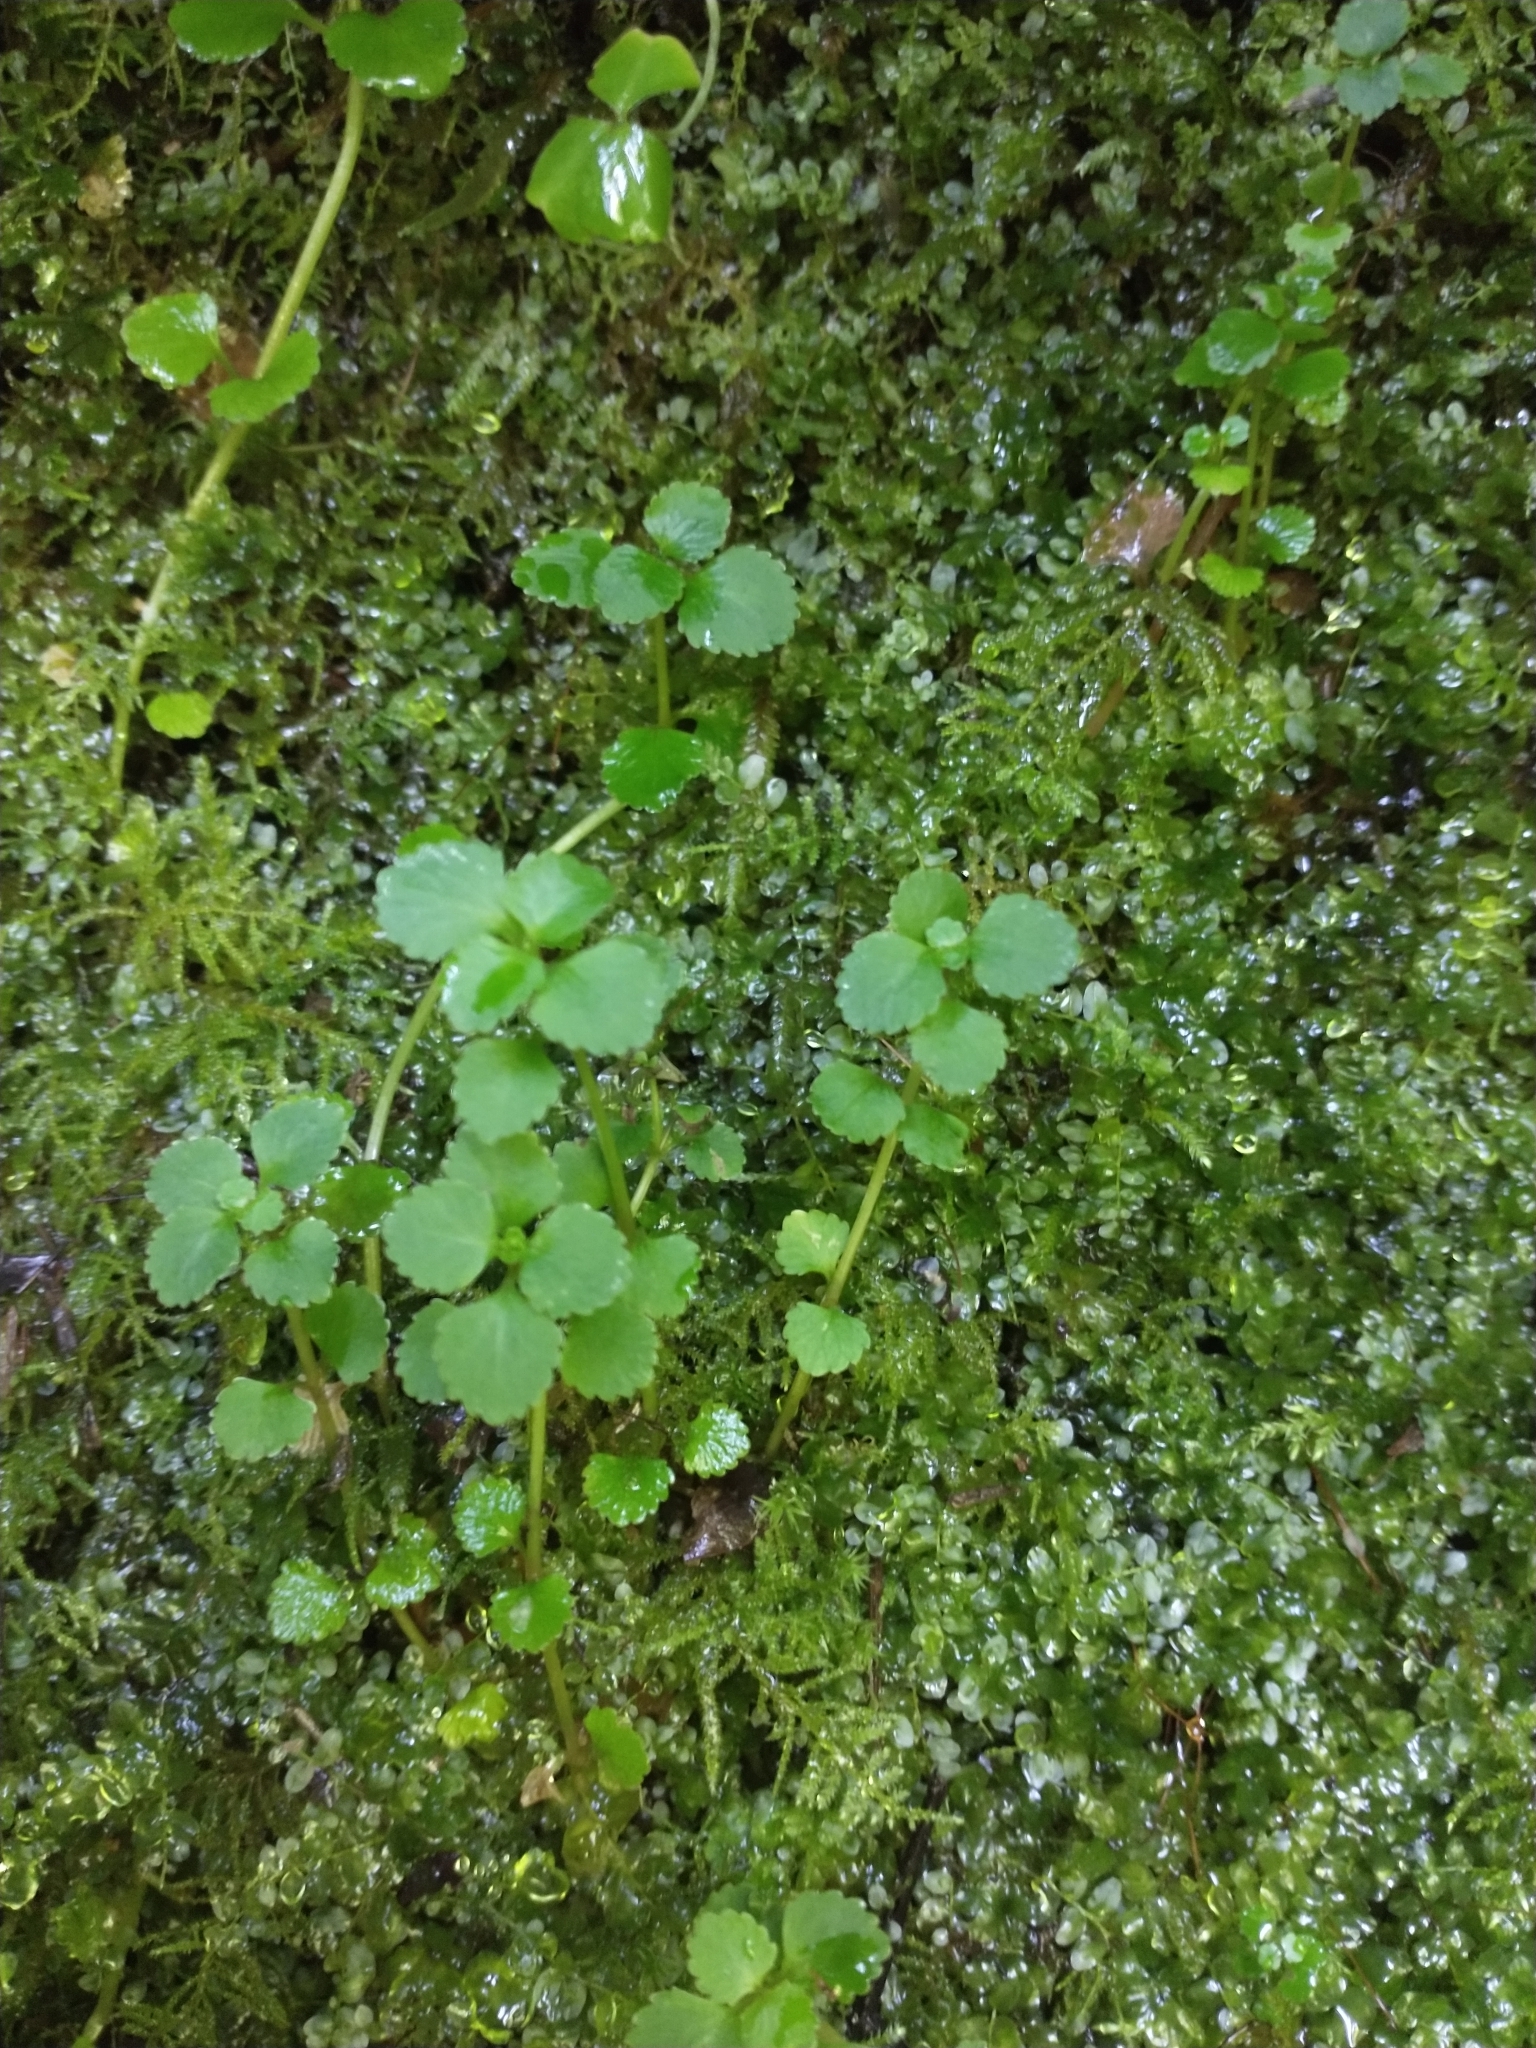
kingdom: Plantae
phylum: Tracheophyta
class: Magnoliopsida
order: Saxifragales
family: Saxifragaceae
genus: Chrysosplenium
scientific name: Chrysosplenium glechomifolium
